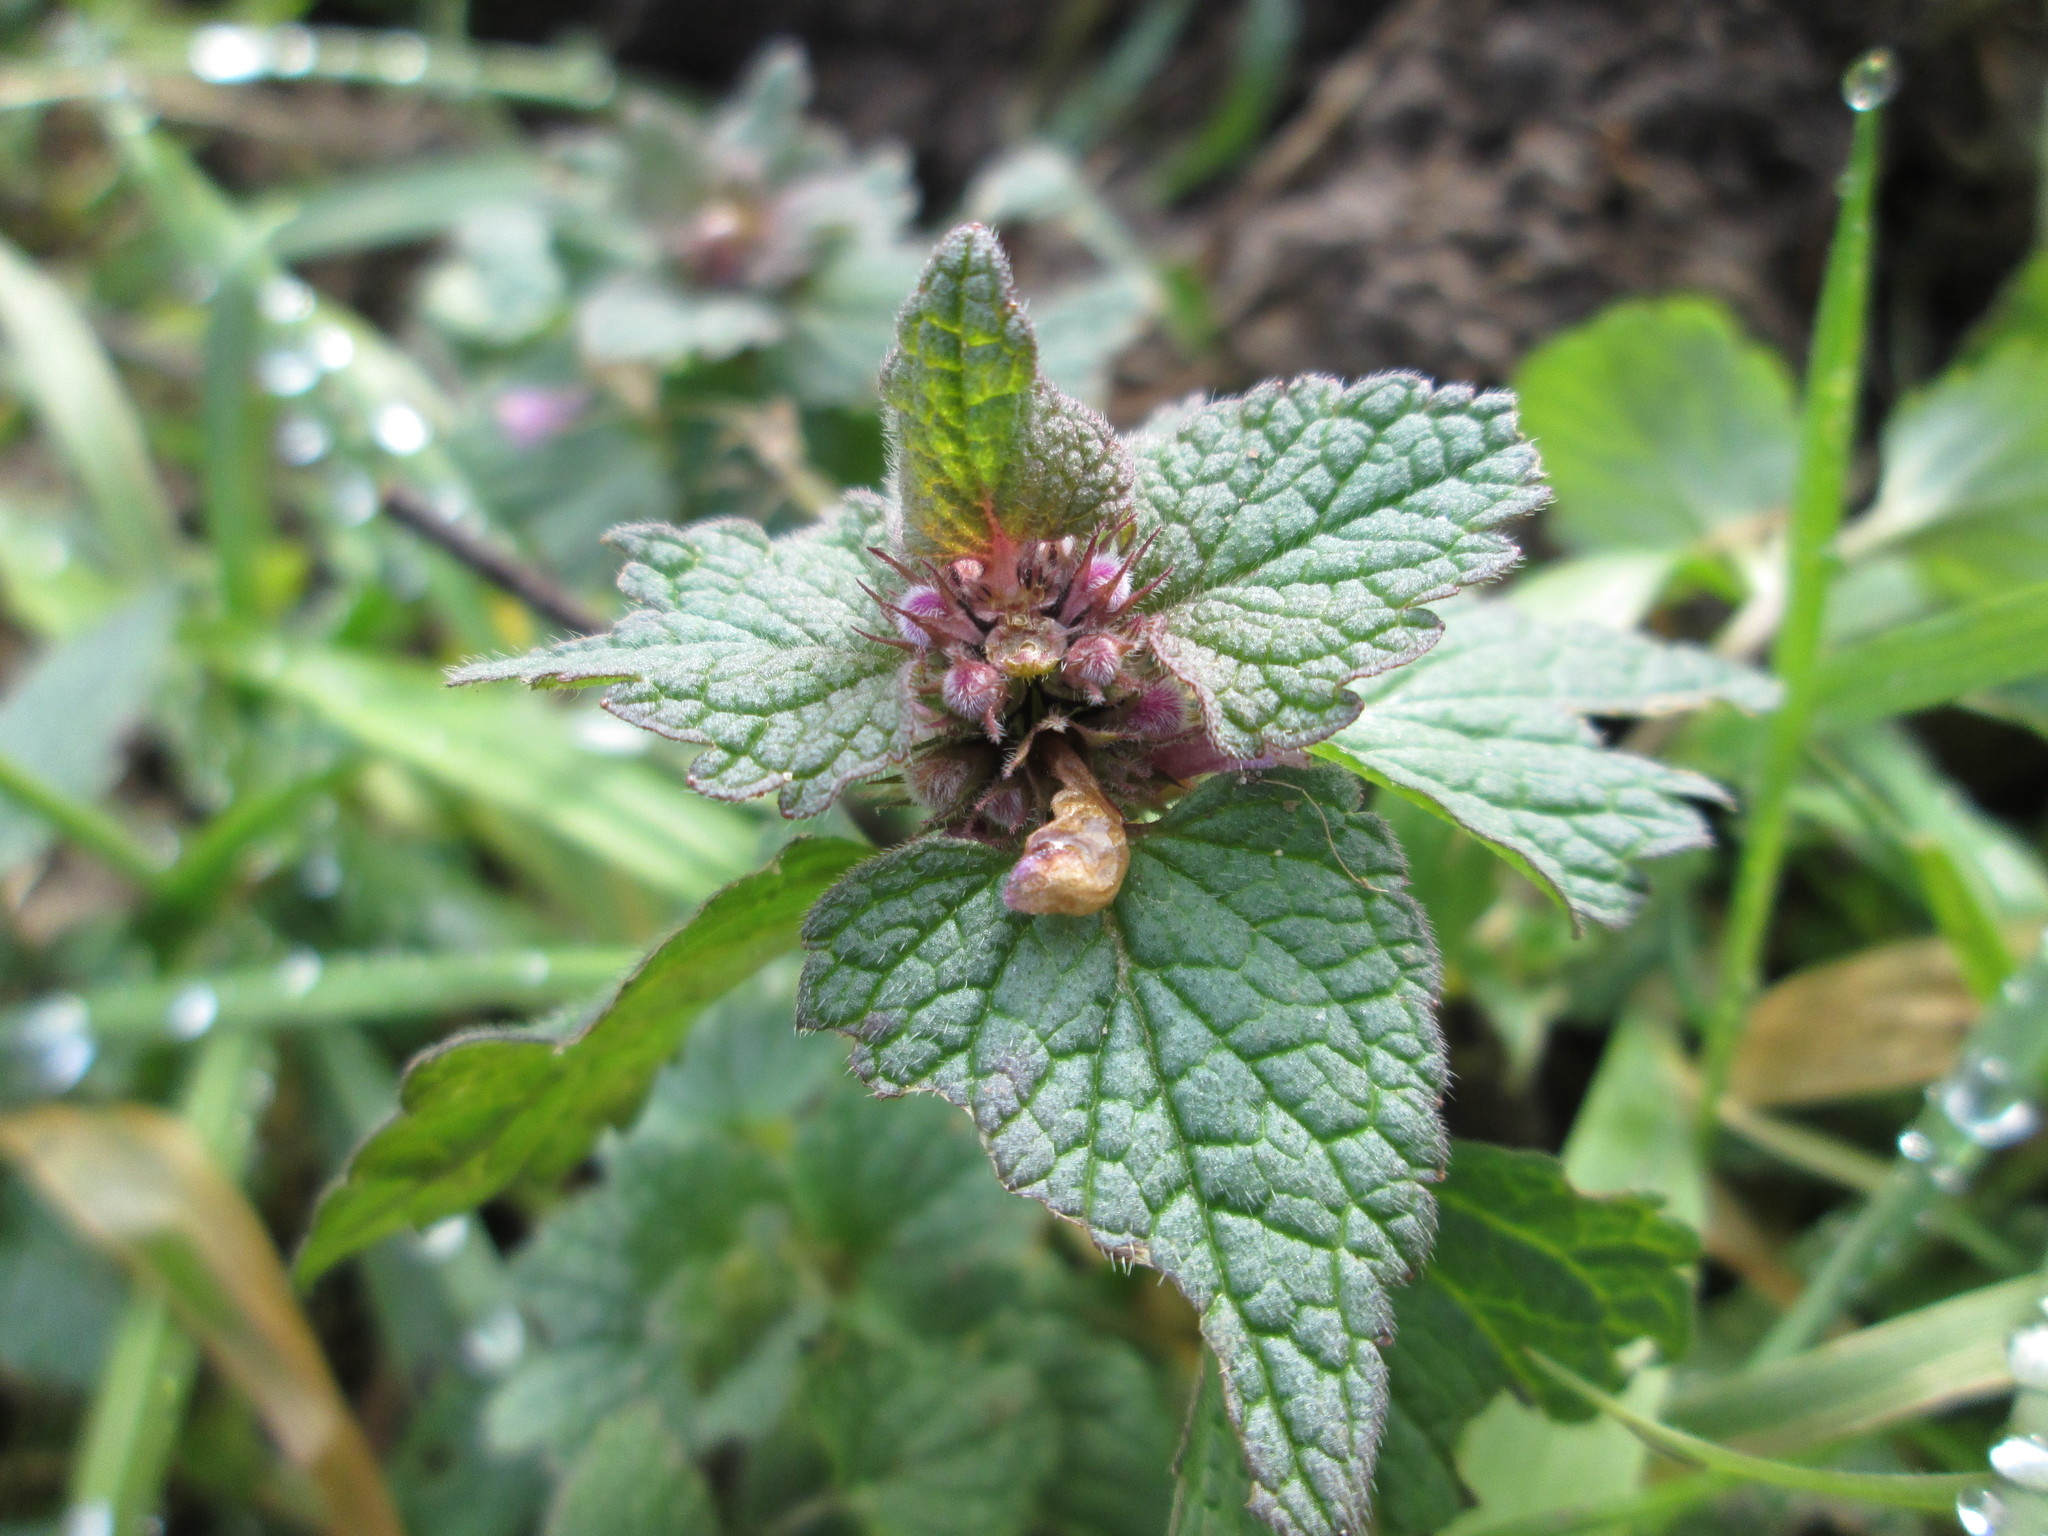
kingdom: Plantae
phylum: Tracheophyta
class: Magnoliopsida
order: Lamiales
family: Lamiaceae
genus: Lamium
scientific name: Lamium purpureum
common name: Red dead-nettle
